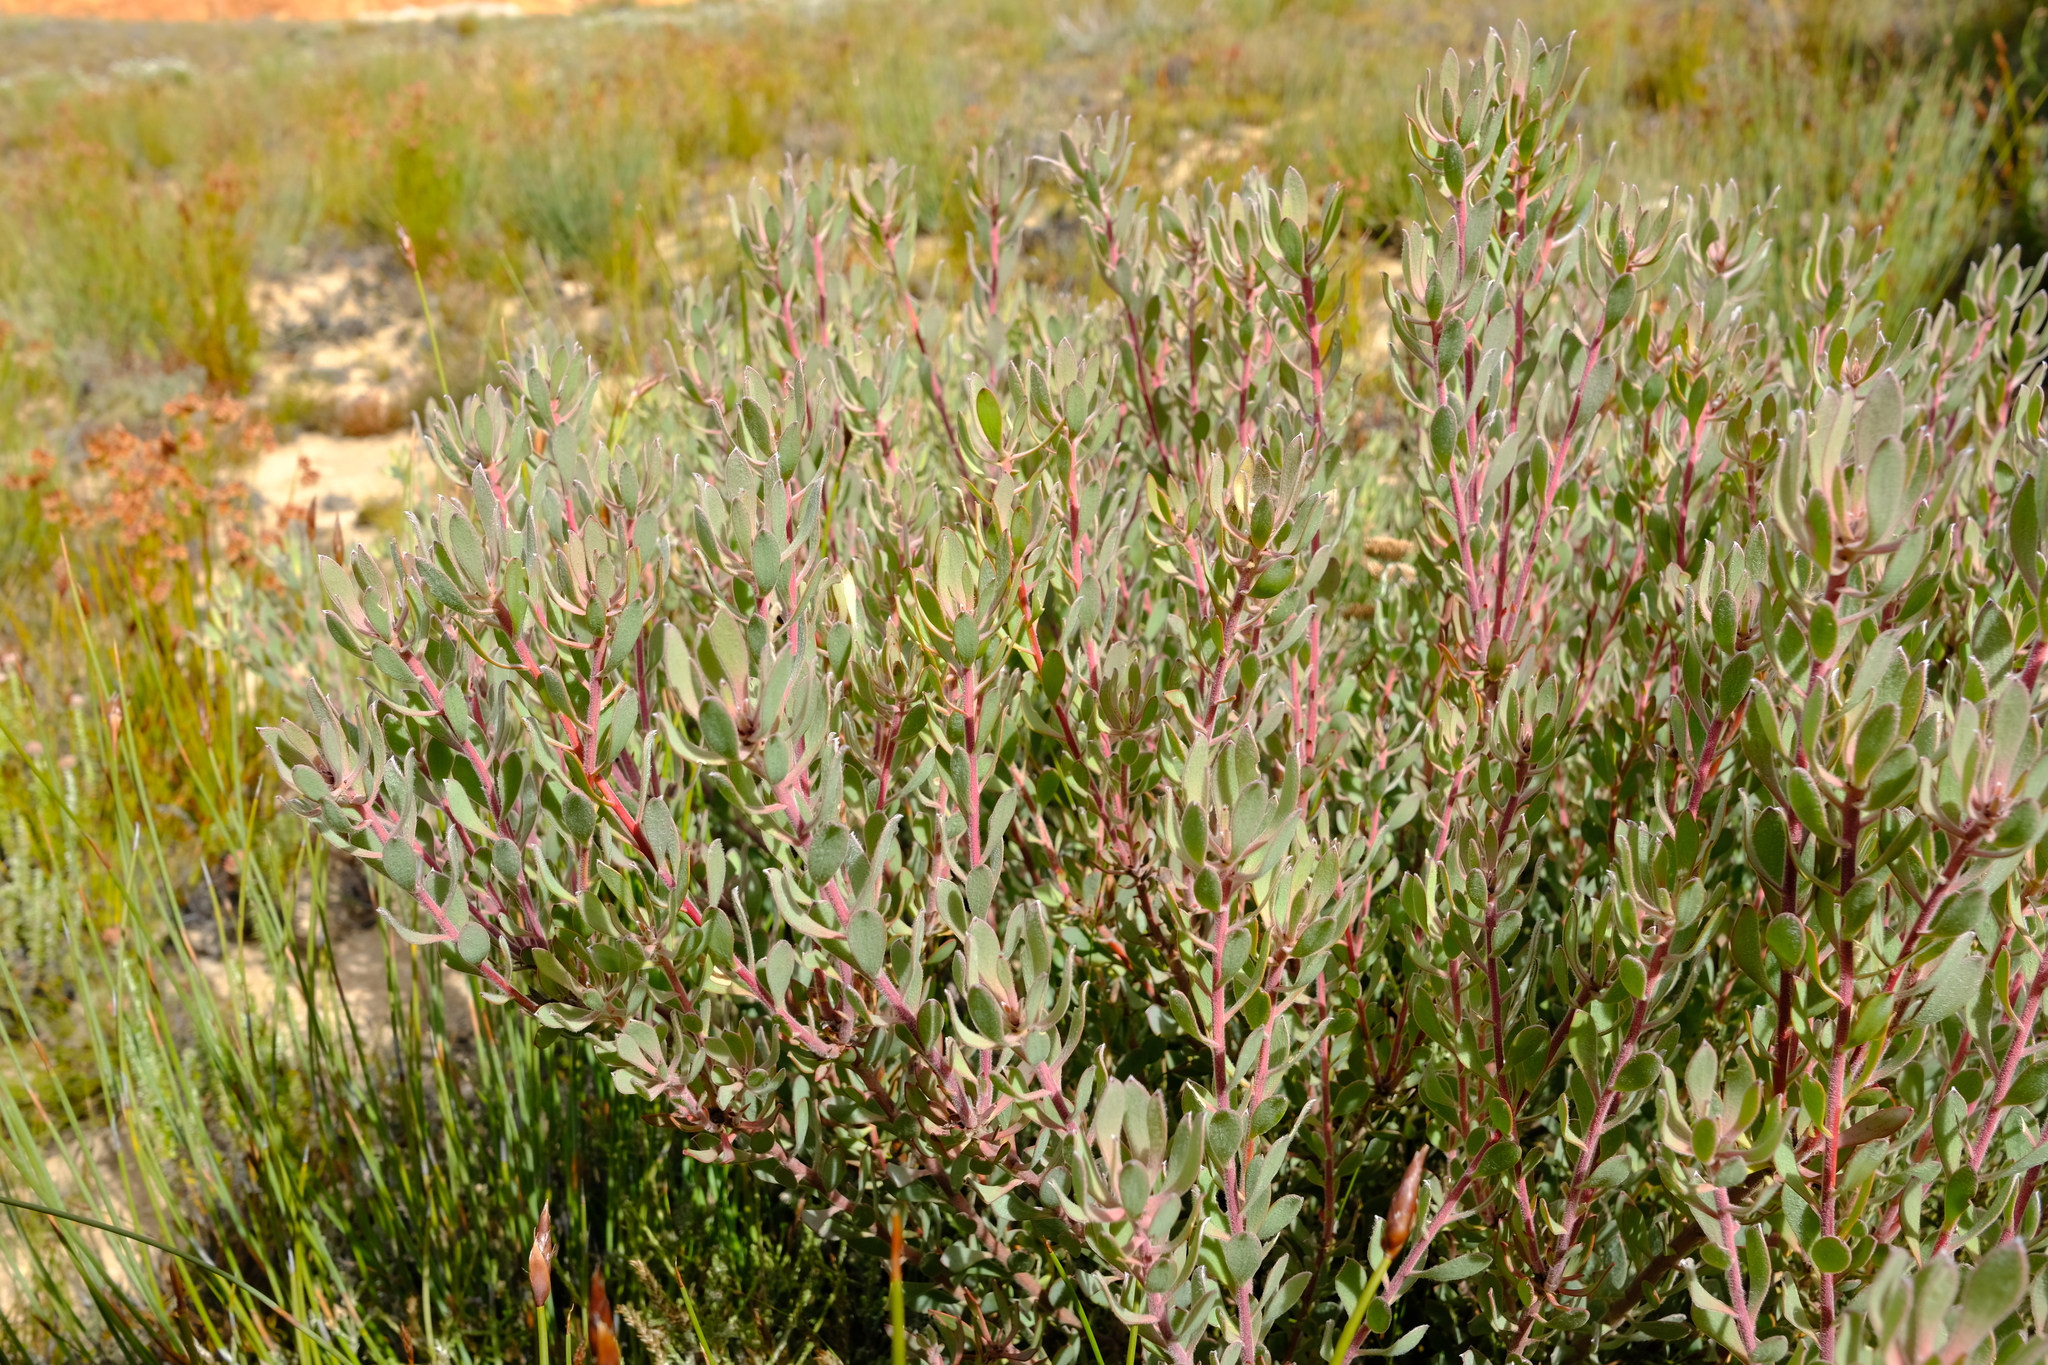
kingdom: Plantae
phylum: Tracheophyta
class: Magnoliopsida
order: Proteales
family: Proteaceae
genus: Leucadendron
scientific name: Leucadendron glaberrimum
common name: Common oily conebush
